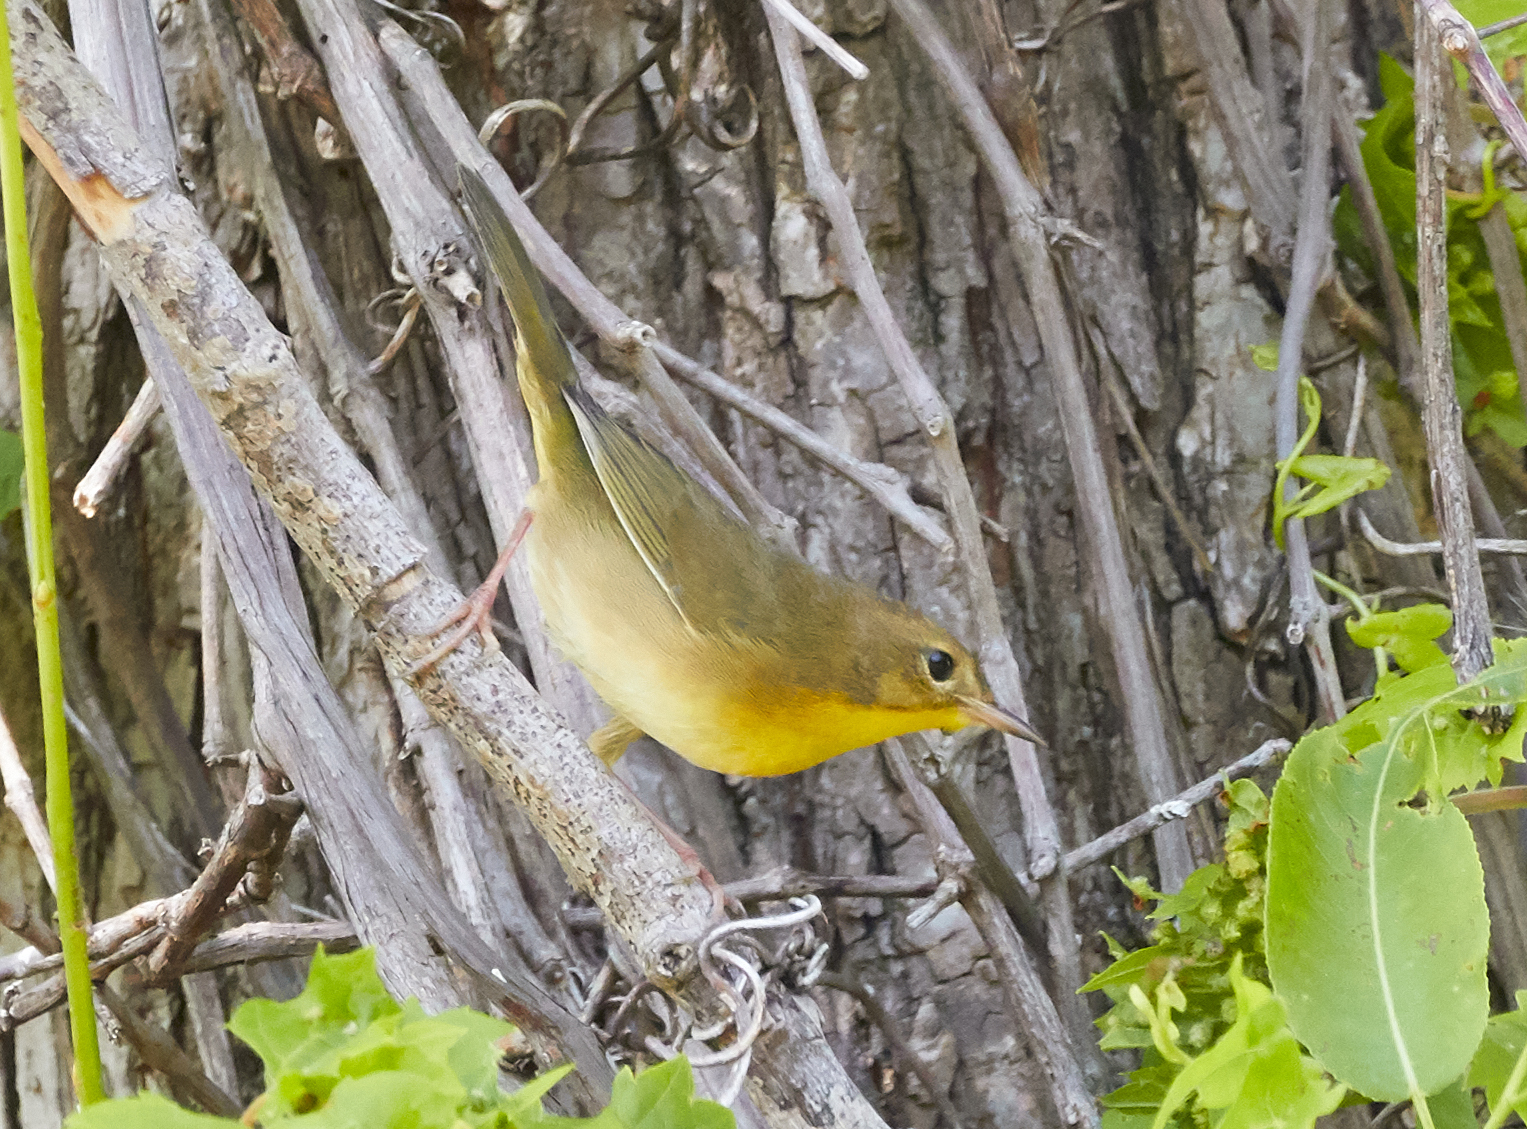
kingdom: Animalia
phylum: Chordata
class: Aves
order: Passeriformes
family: Parulidae
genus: Geothlypis
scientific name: Geothlypis trichas
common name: Common yellowthroat
